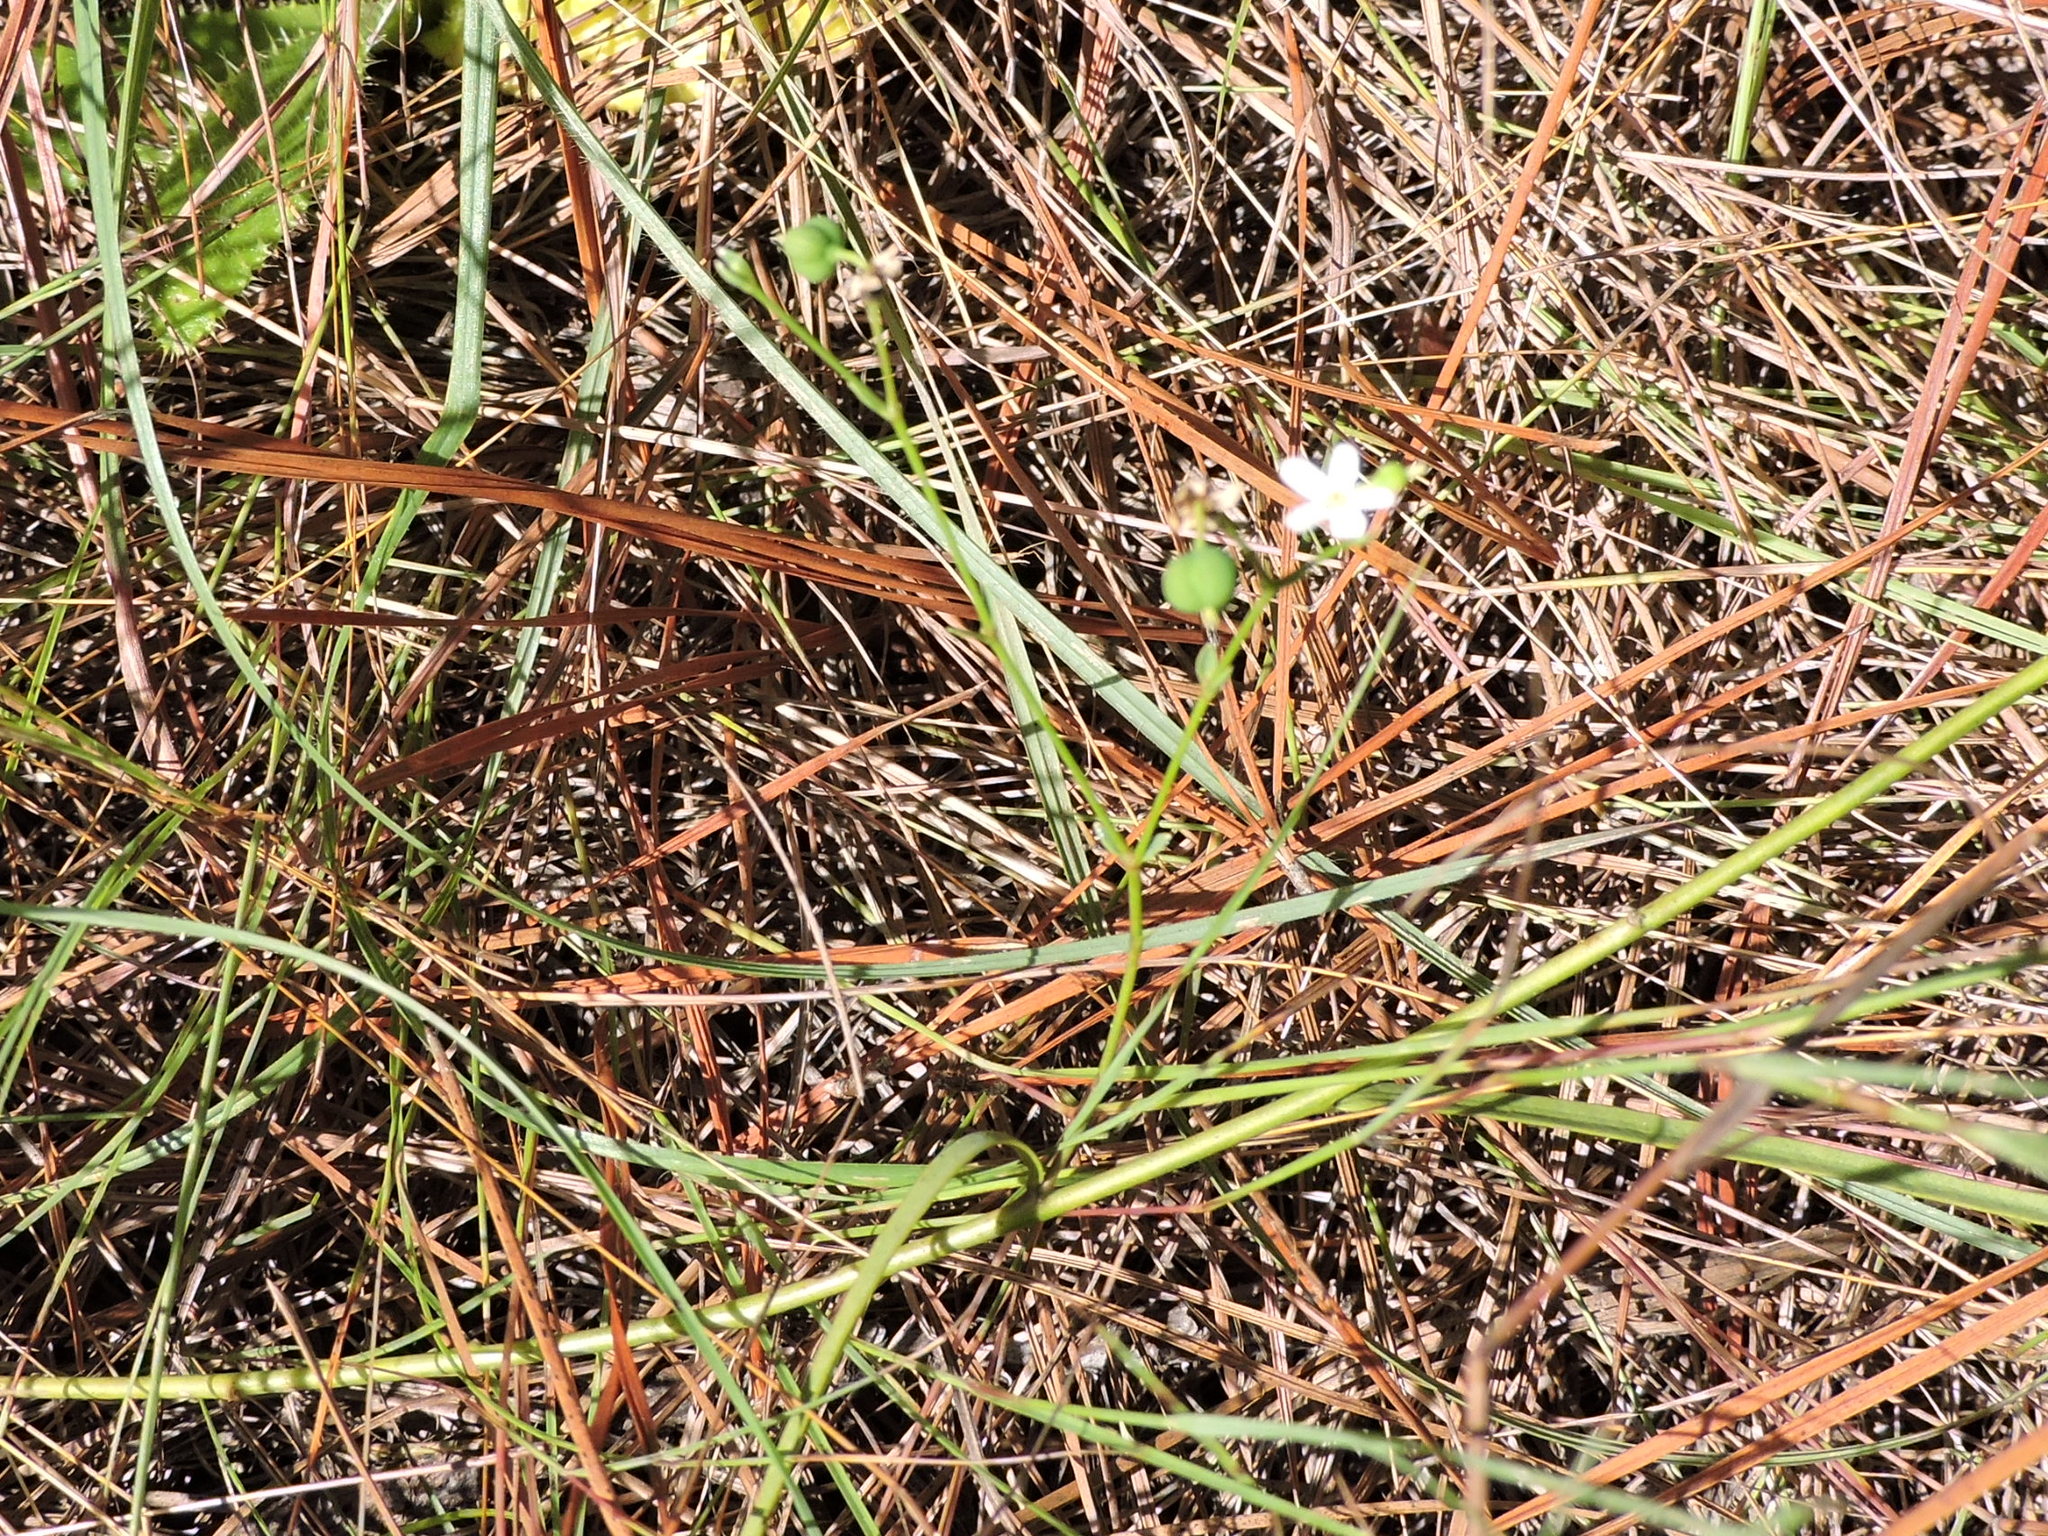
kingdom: Plantae
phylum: Tracheophyta
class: Magnoliopsida
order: Malpighiales
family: Euphorbiaceae
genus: Euphorbia
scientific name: Euphorbia corollata
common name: Flowering spurge
